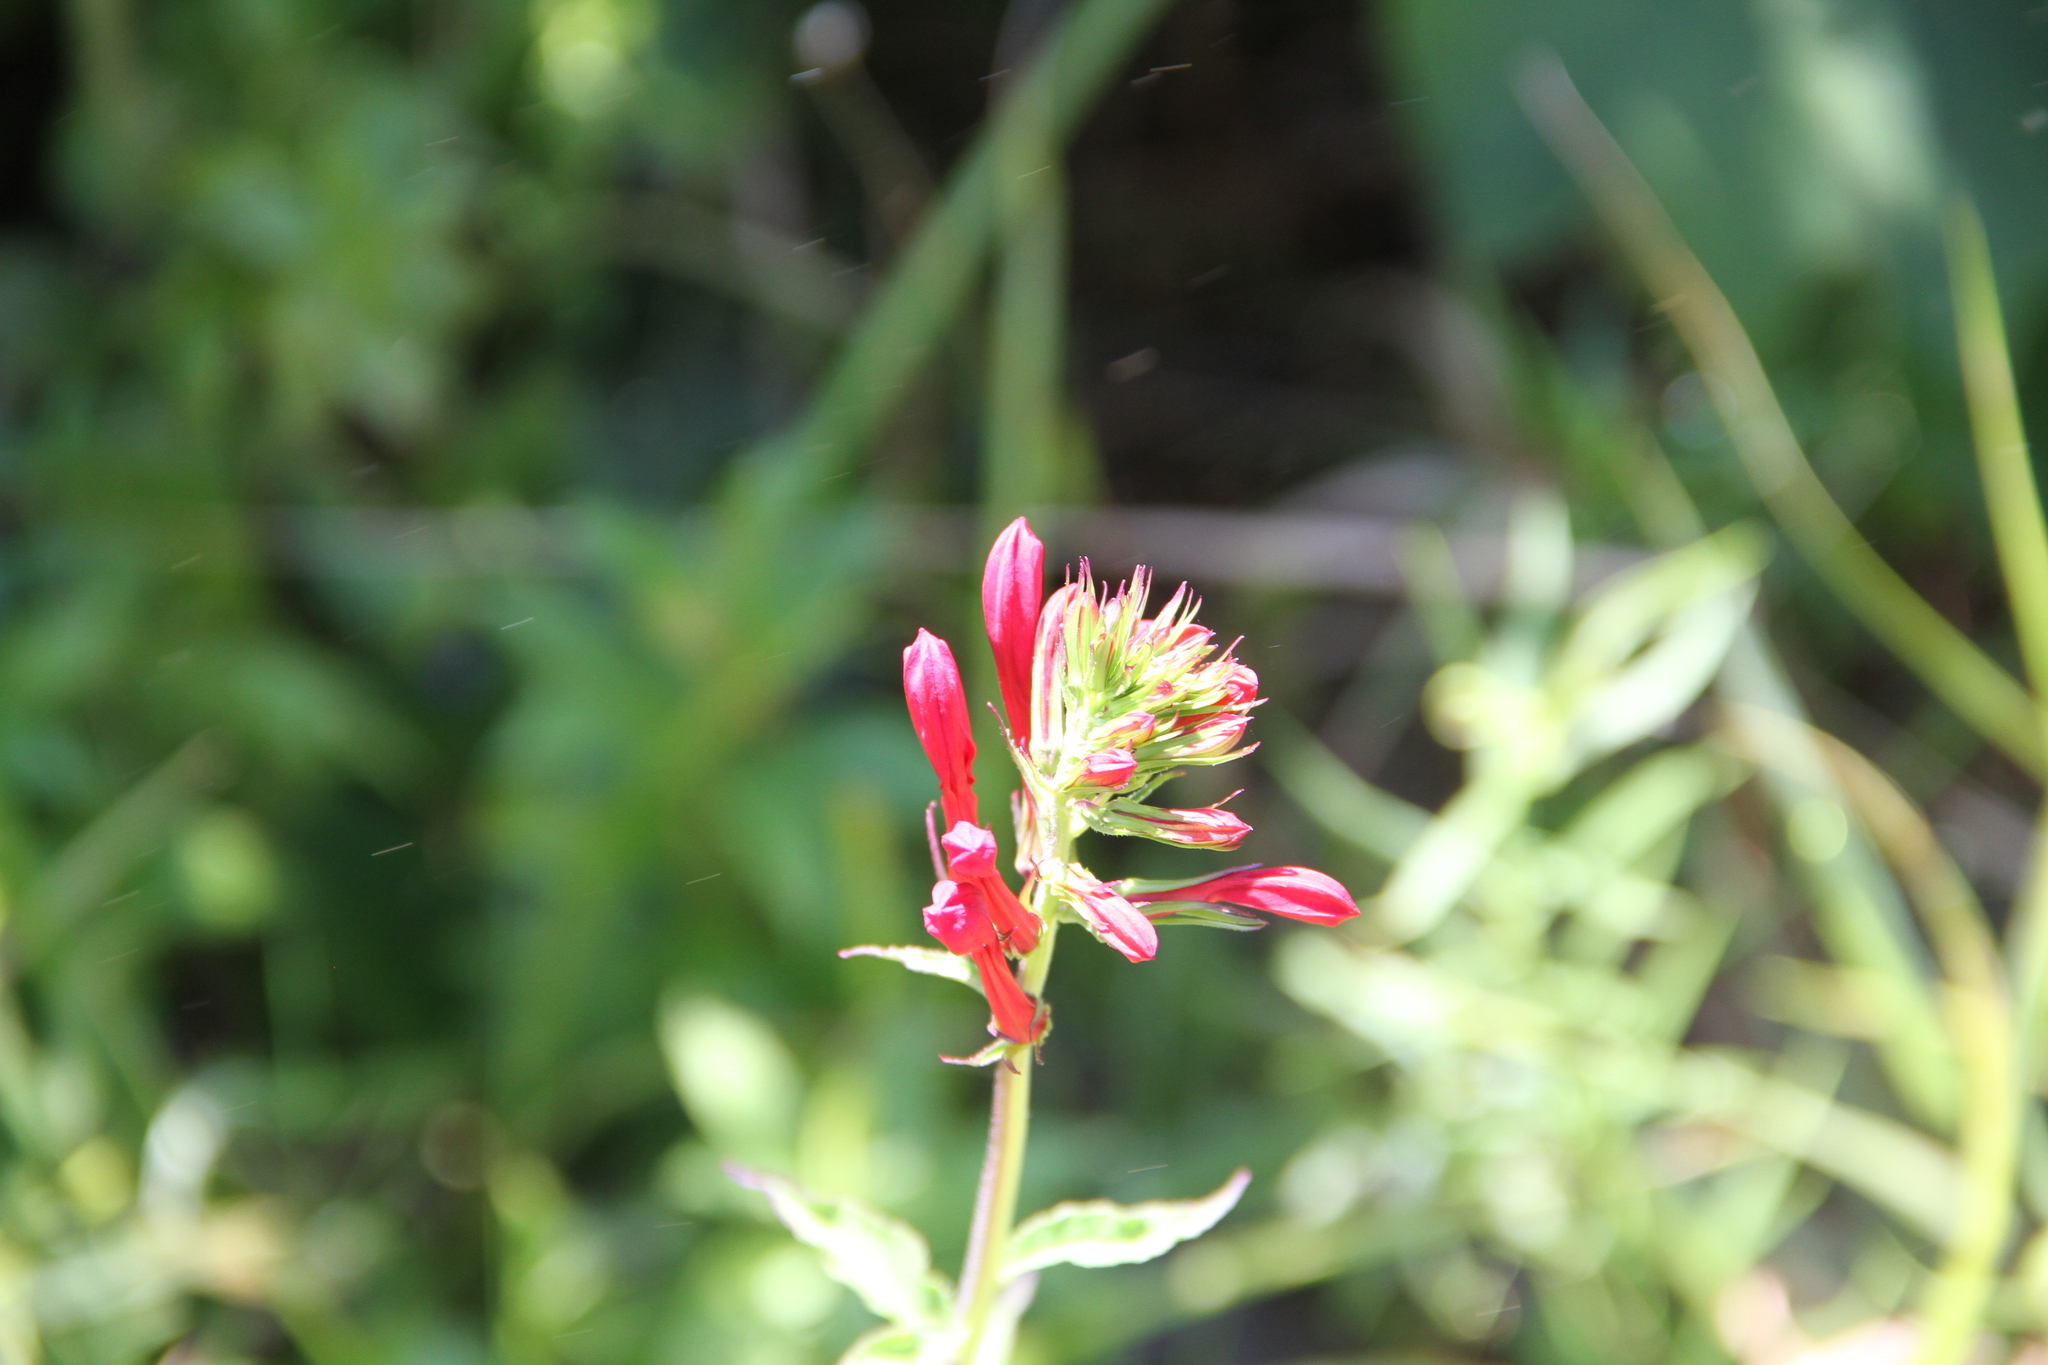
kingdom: Plantae
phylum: Tracheophyta
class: Magnoliopsida
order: Asterales
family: Campanulaceae
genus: Lobelia
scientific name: Lobelia cardinalis
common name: Cardinal flower
